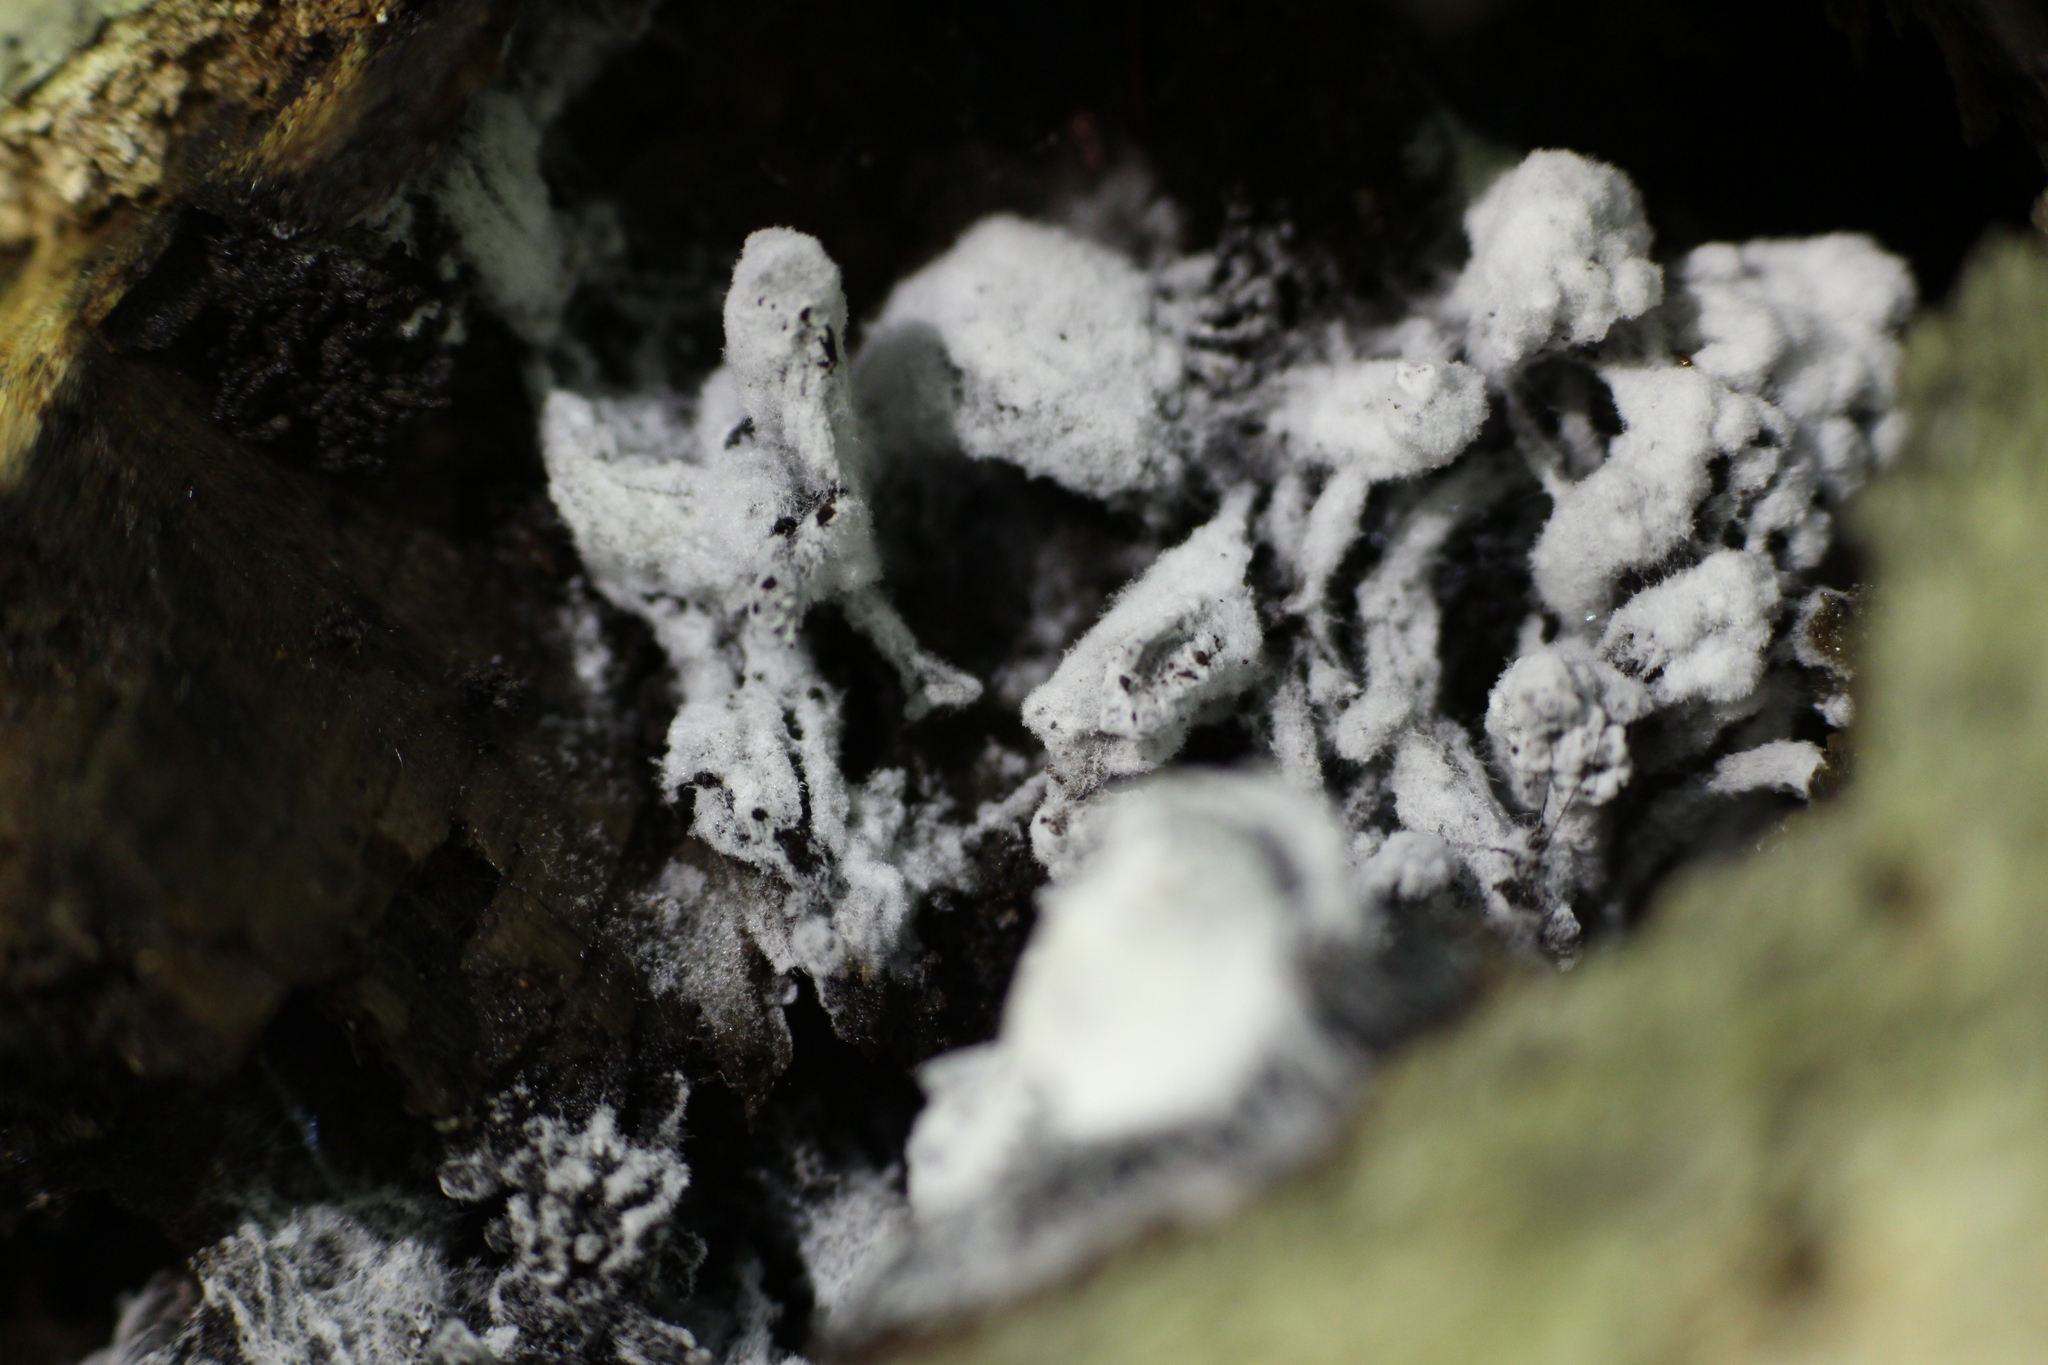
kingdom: Fungi
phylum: Ascomycota
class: Sordariomycetes
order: Hypocreales
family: Bionectriaceae
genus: Nectriopsis
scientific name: Nectriopsis rexiana
